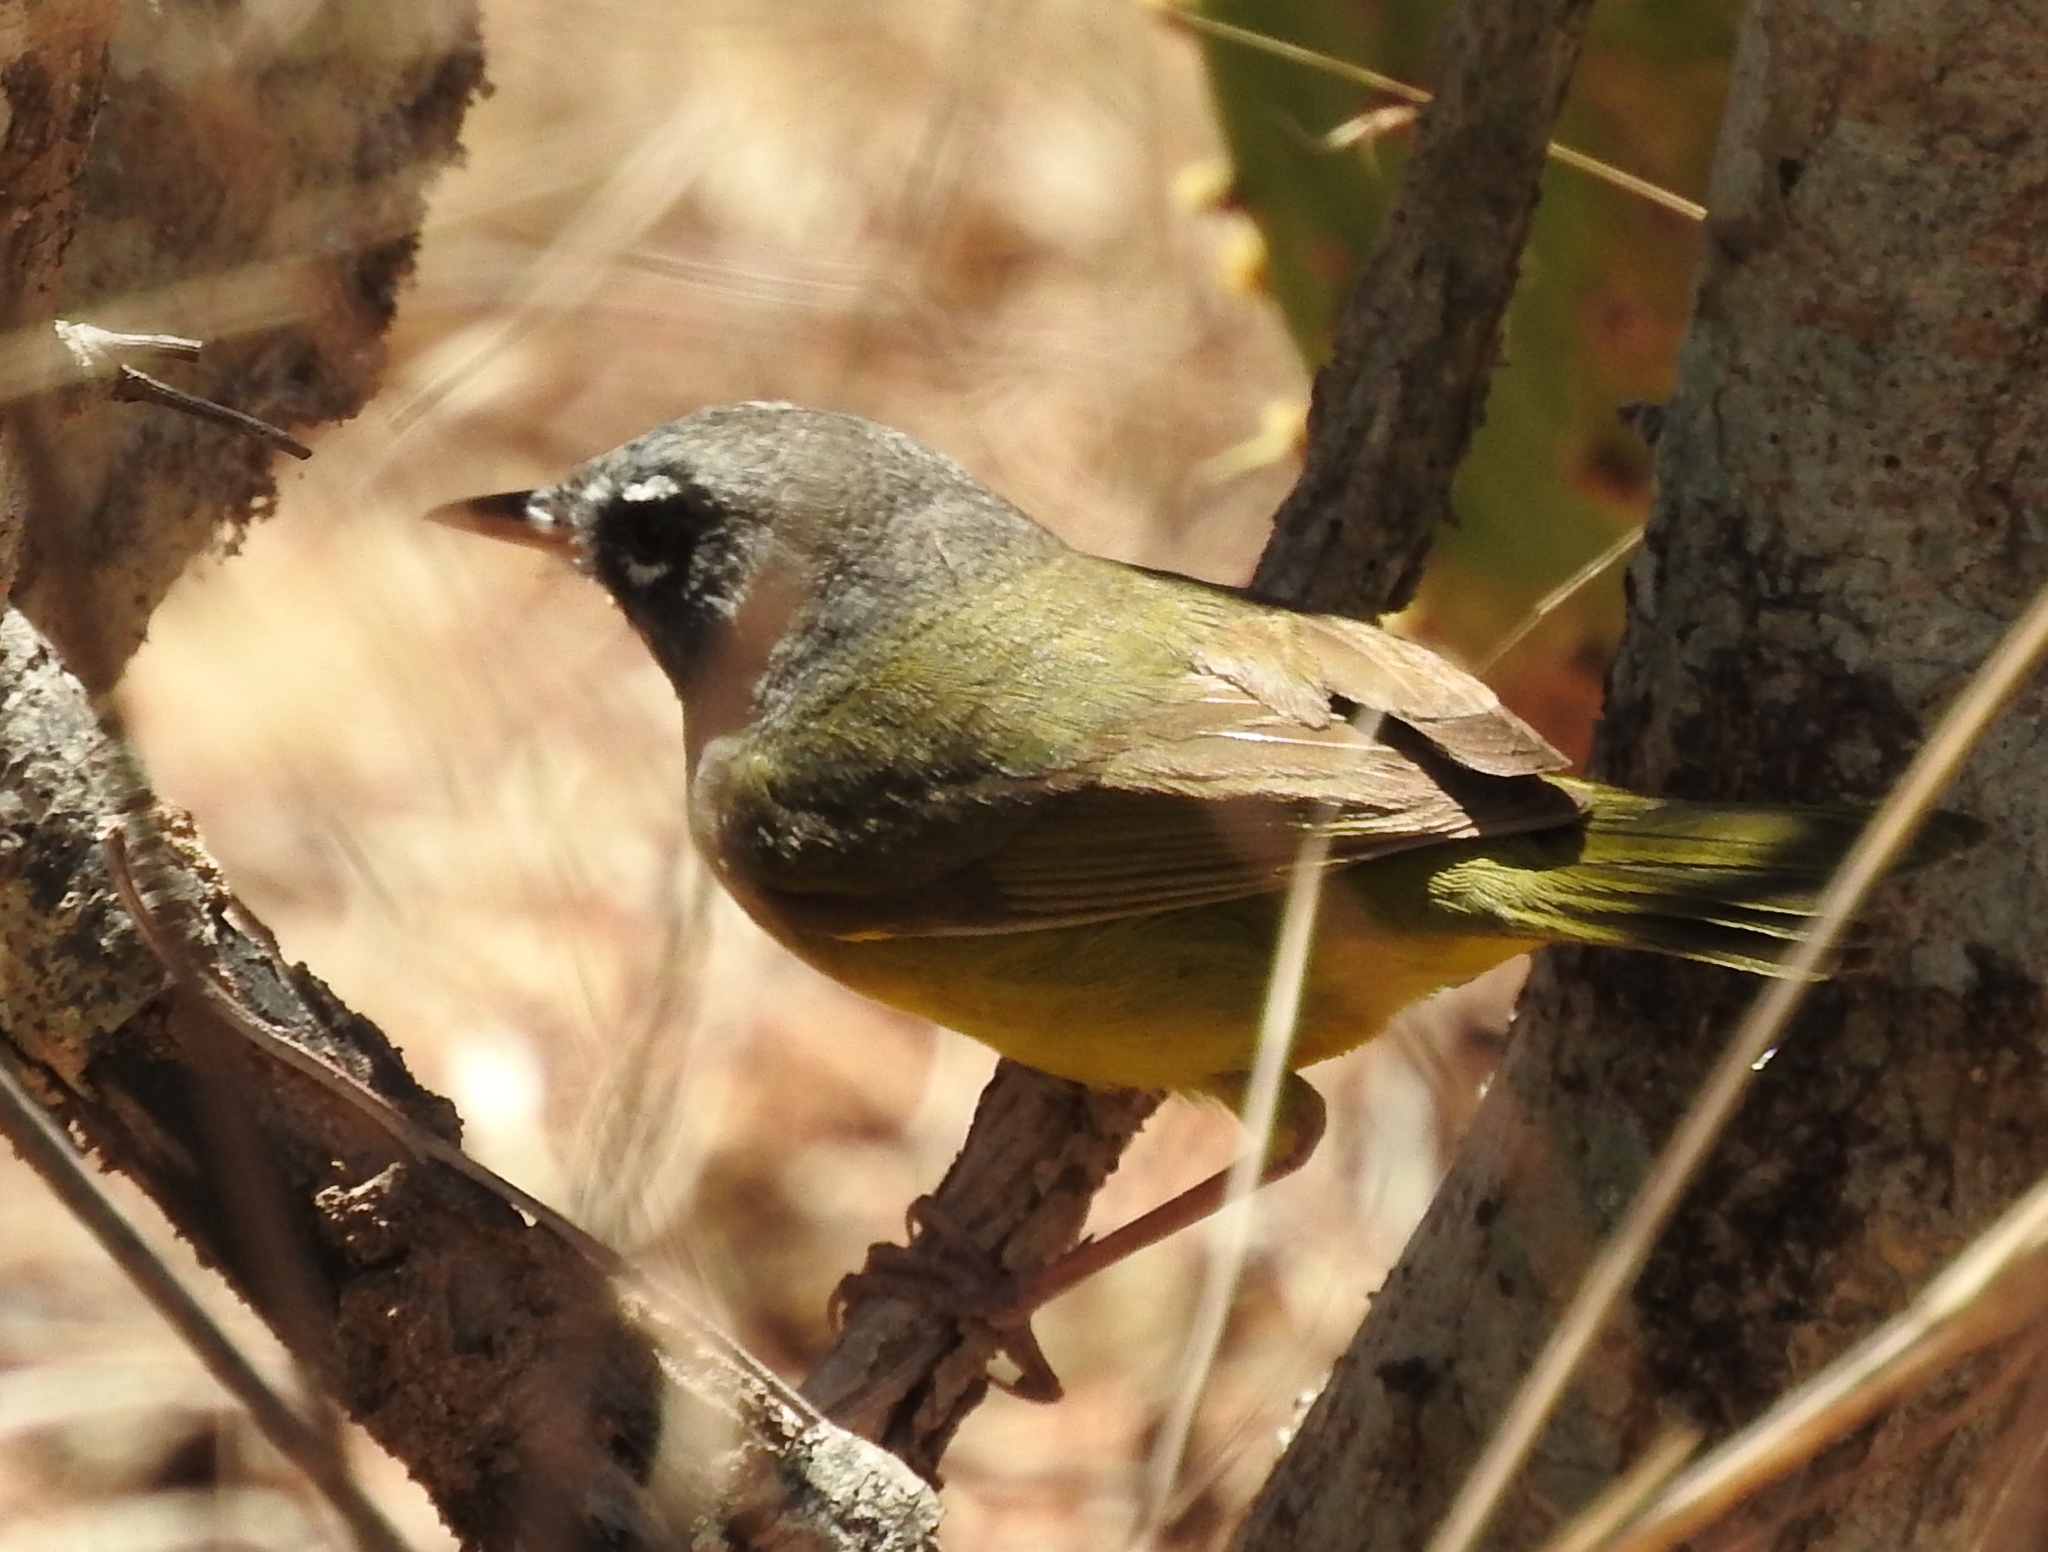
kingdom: Animalia
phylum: Chordata
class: Aves
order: Passeriformes
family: Parulidae
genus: Geothlypis
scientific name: Geothlypis tolmiei
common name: Macgillivray's warbler
